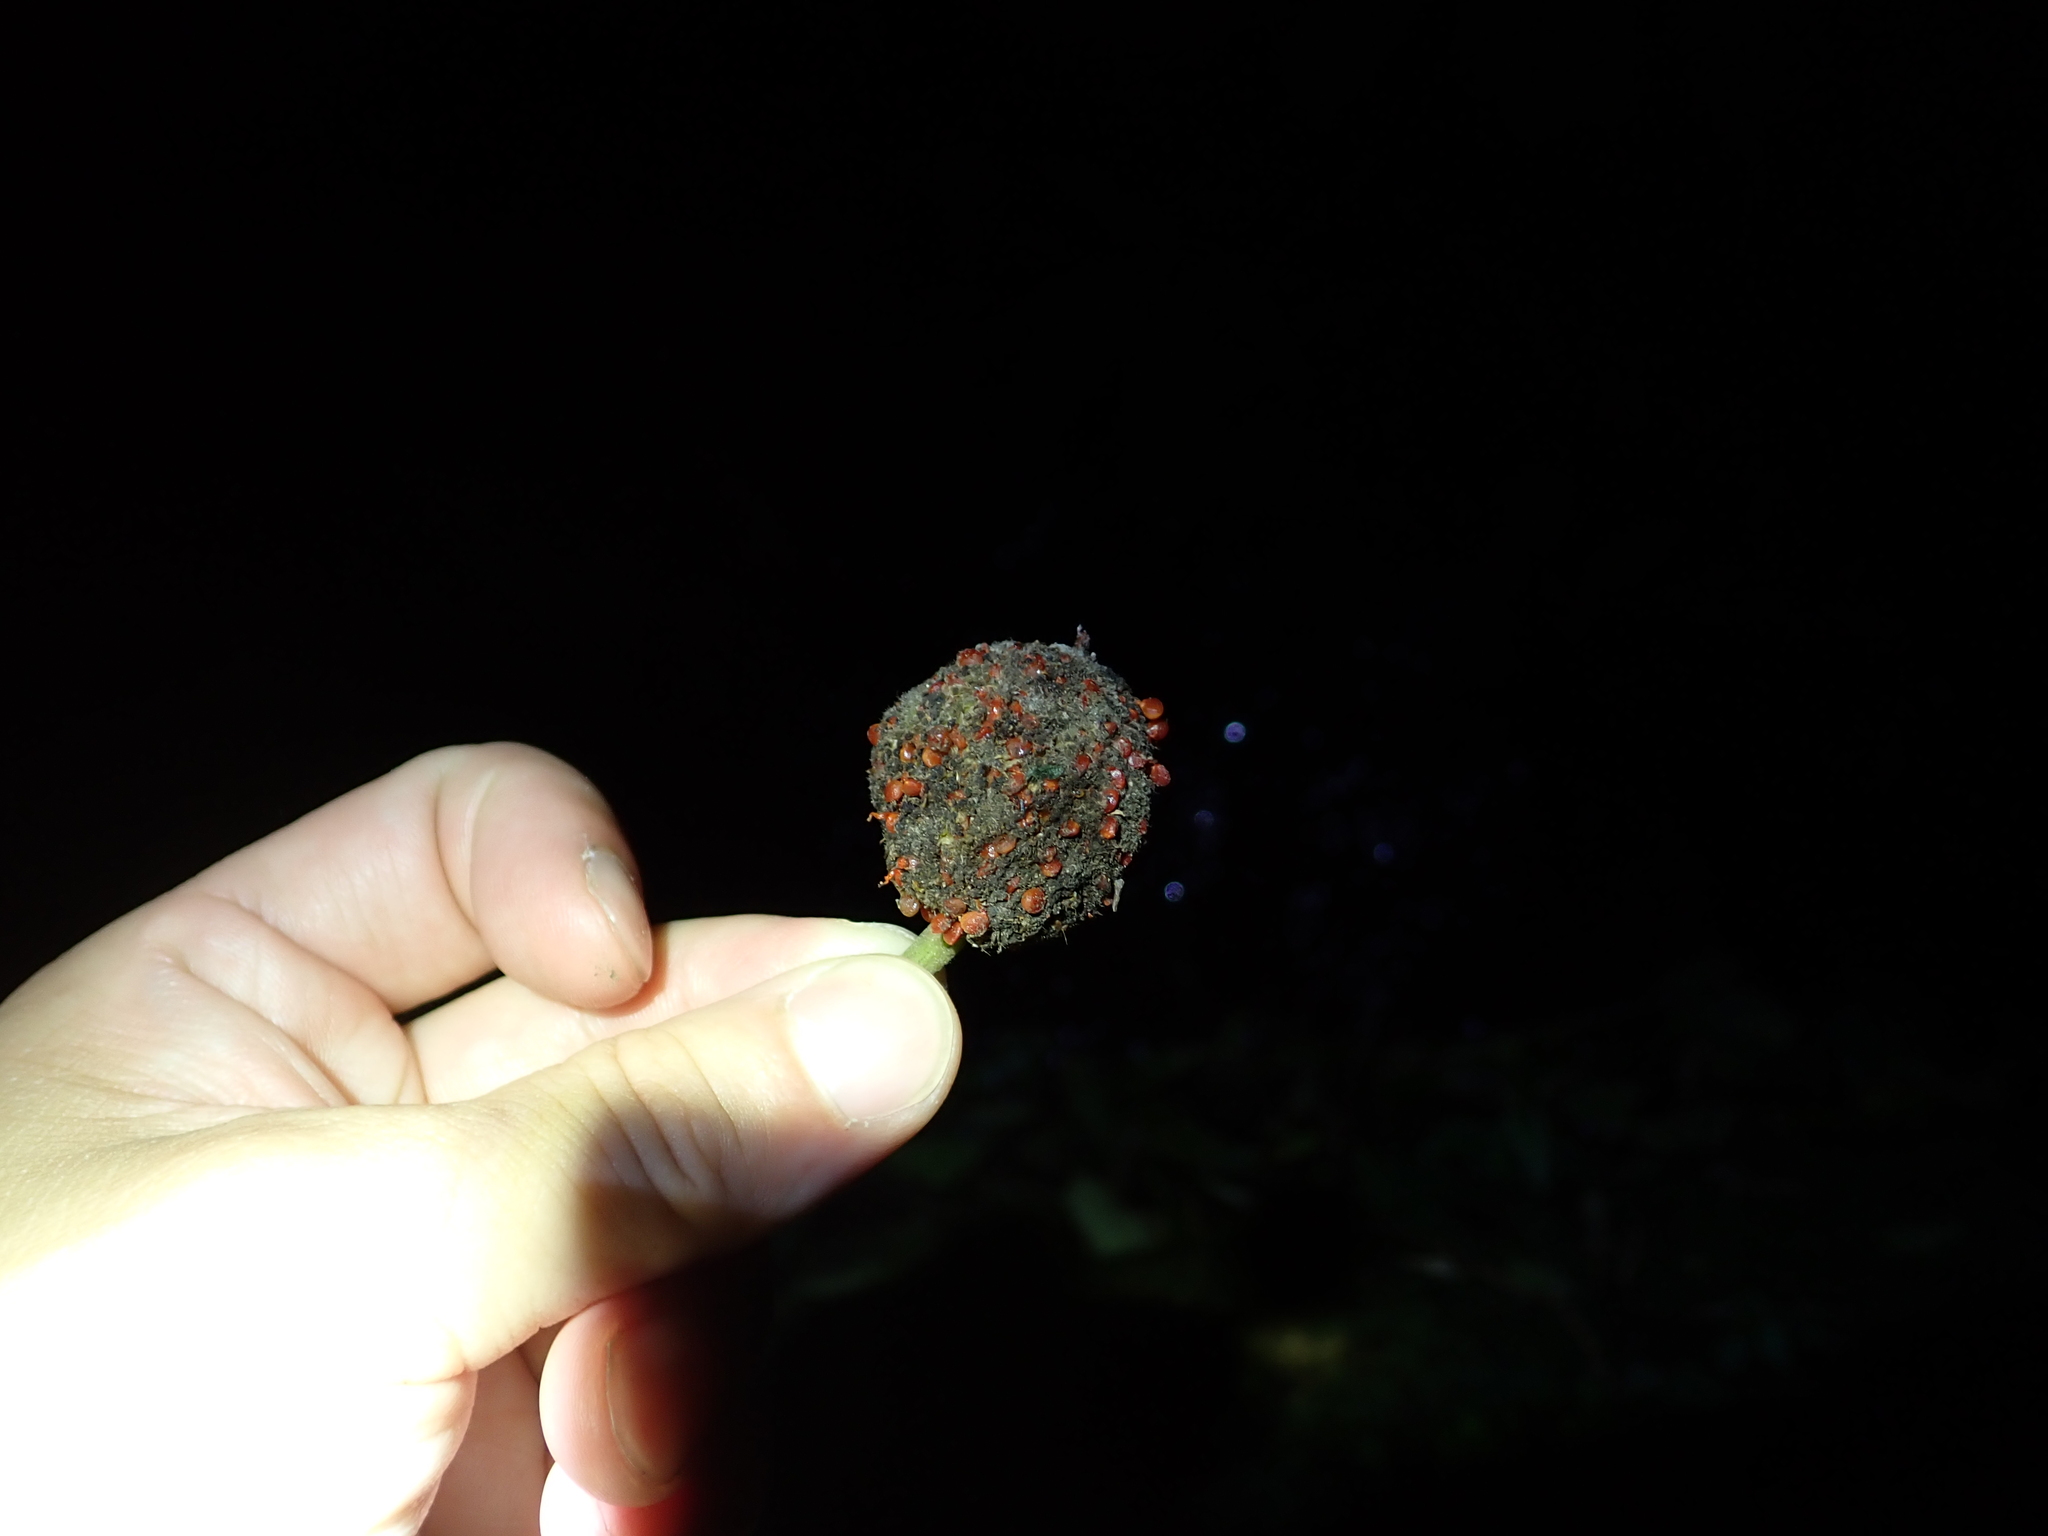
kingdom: Plantae
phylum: Tracheophyta
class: Magnoliopsida
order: Rosales
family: Moraceae
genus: Broussonetia
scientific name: Broussonetia papyrifera
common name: Paper mulberry
